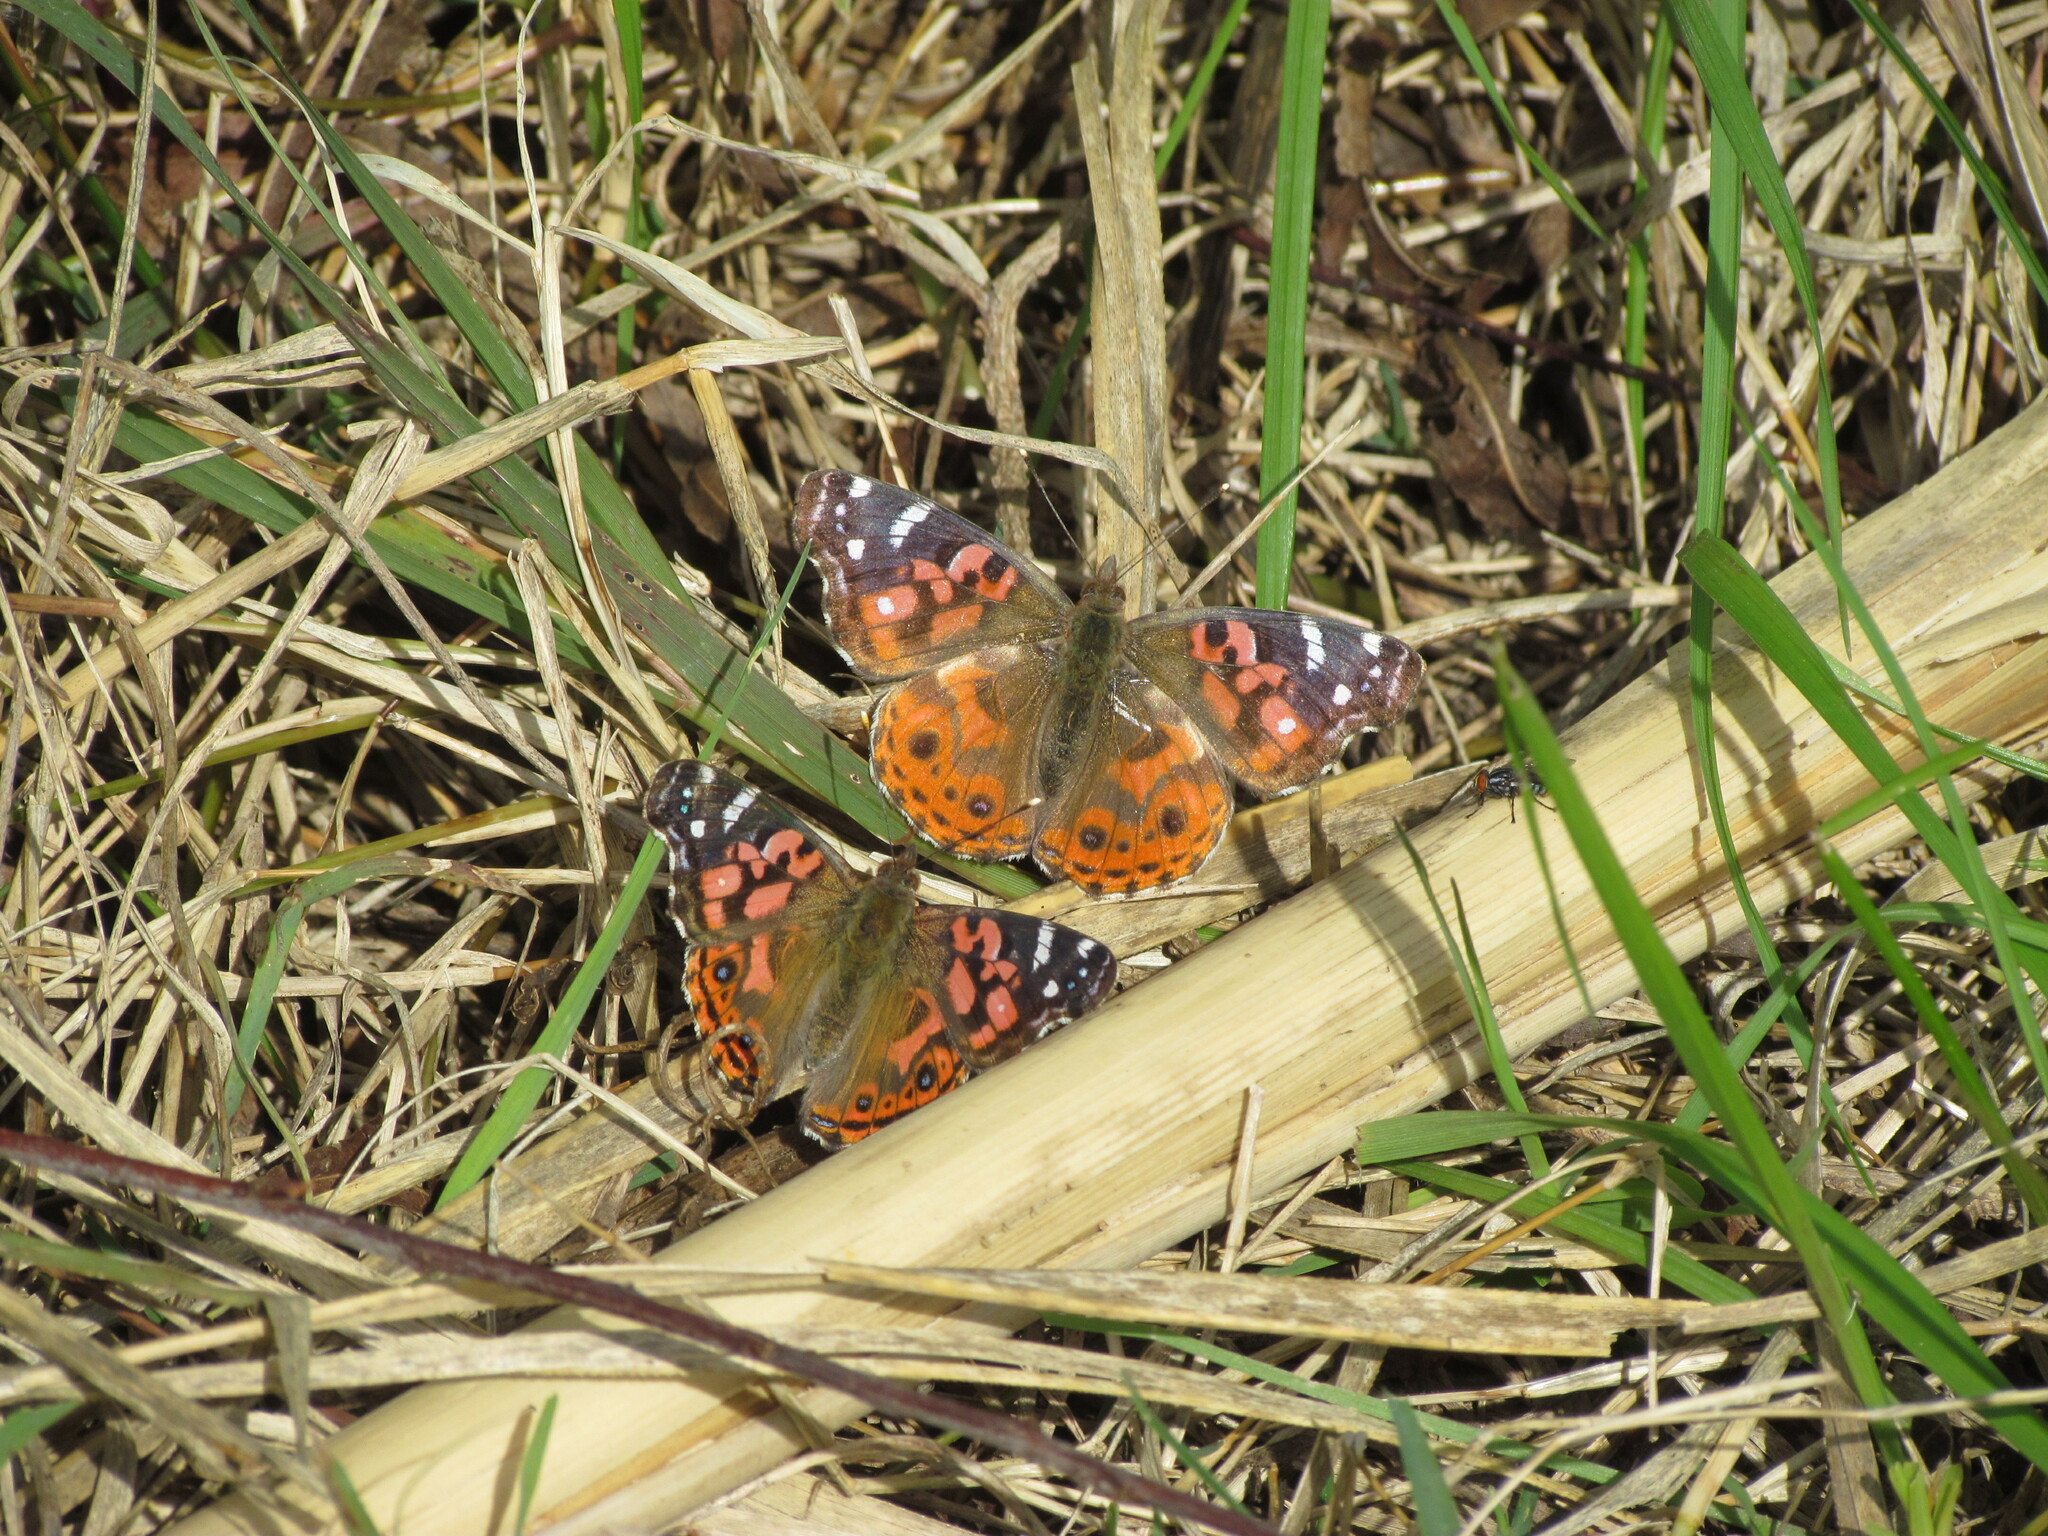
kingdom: Animalia
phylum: Arthropoda
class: Insecta
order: Lepidoptera
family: Nymphalidae
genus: Vanessa
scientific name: Vanessa braziliensis
